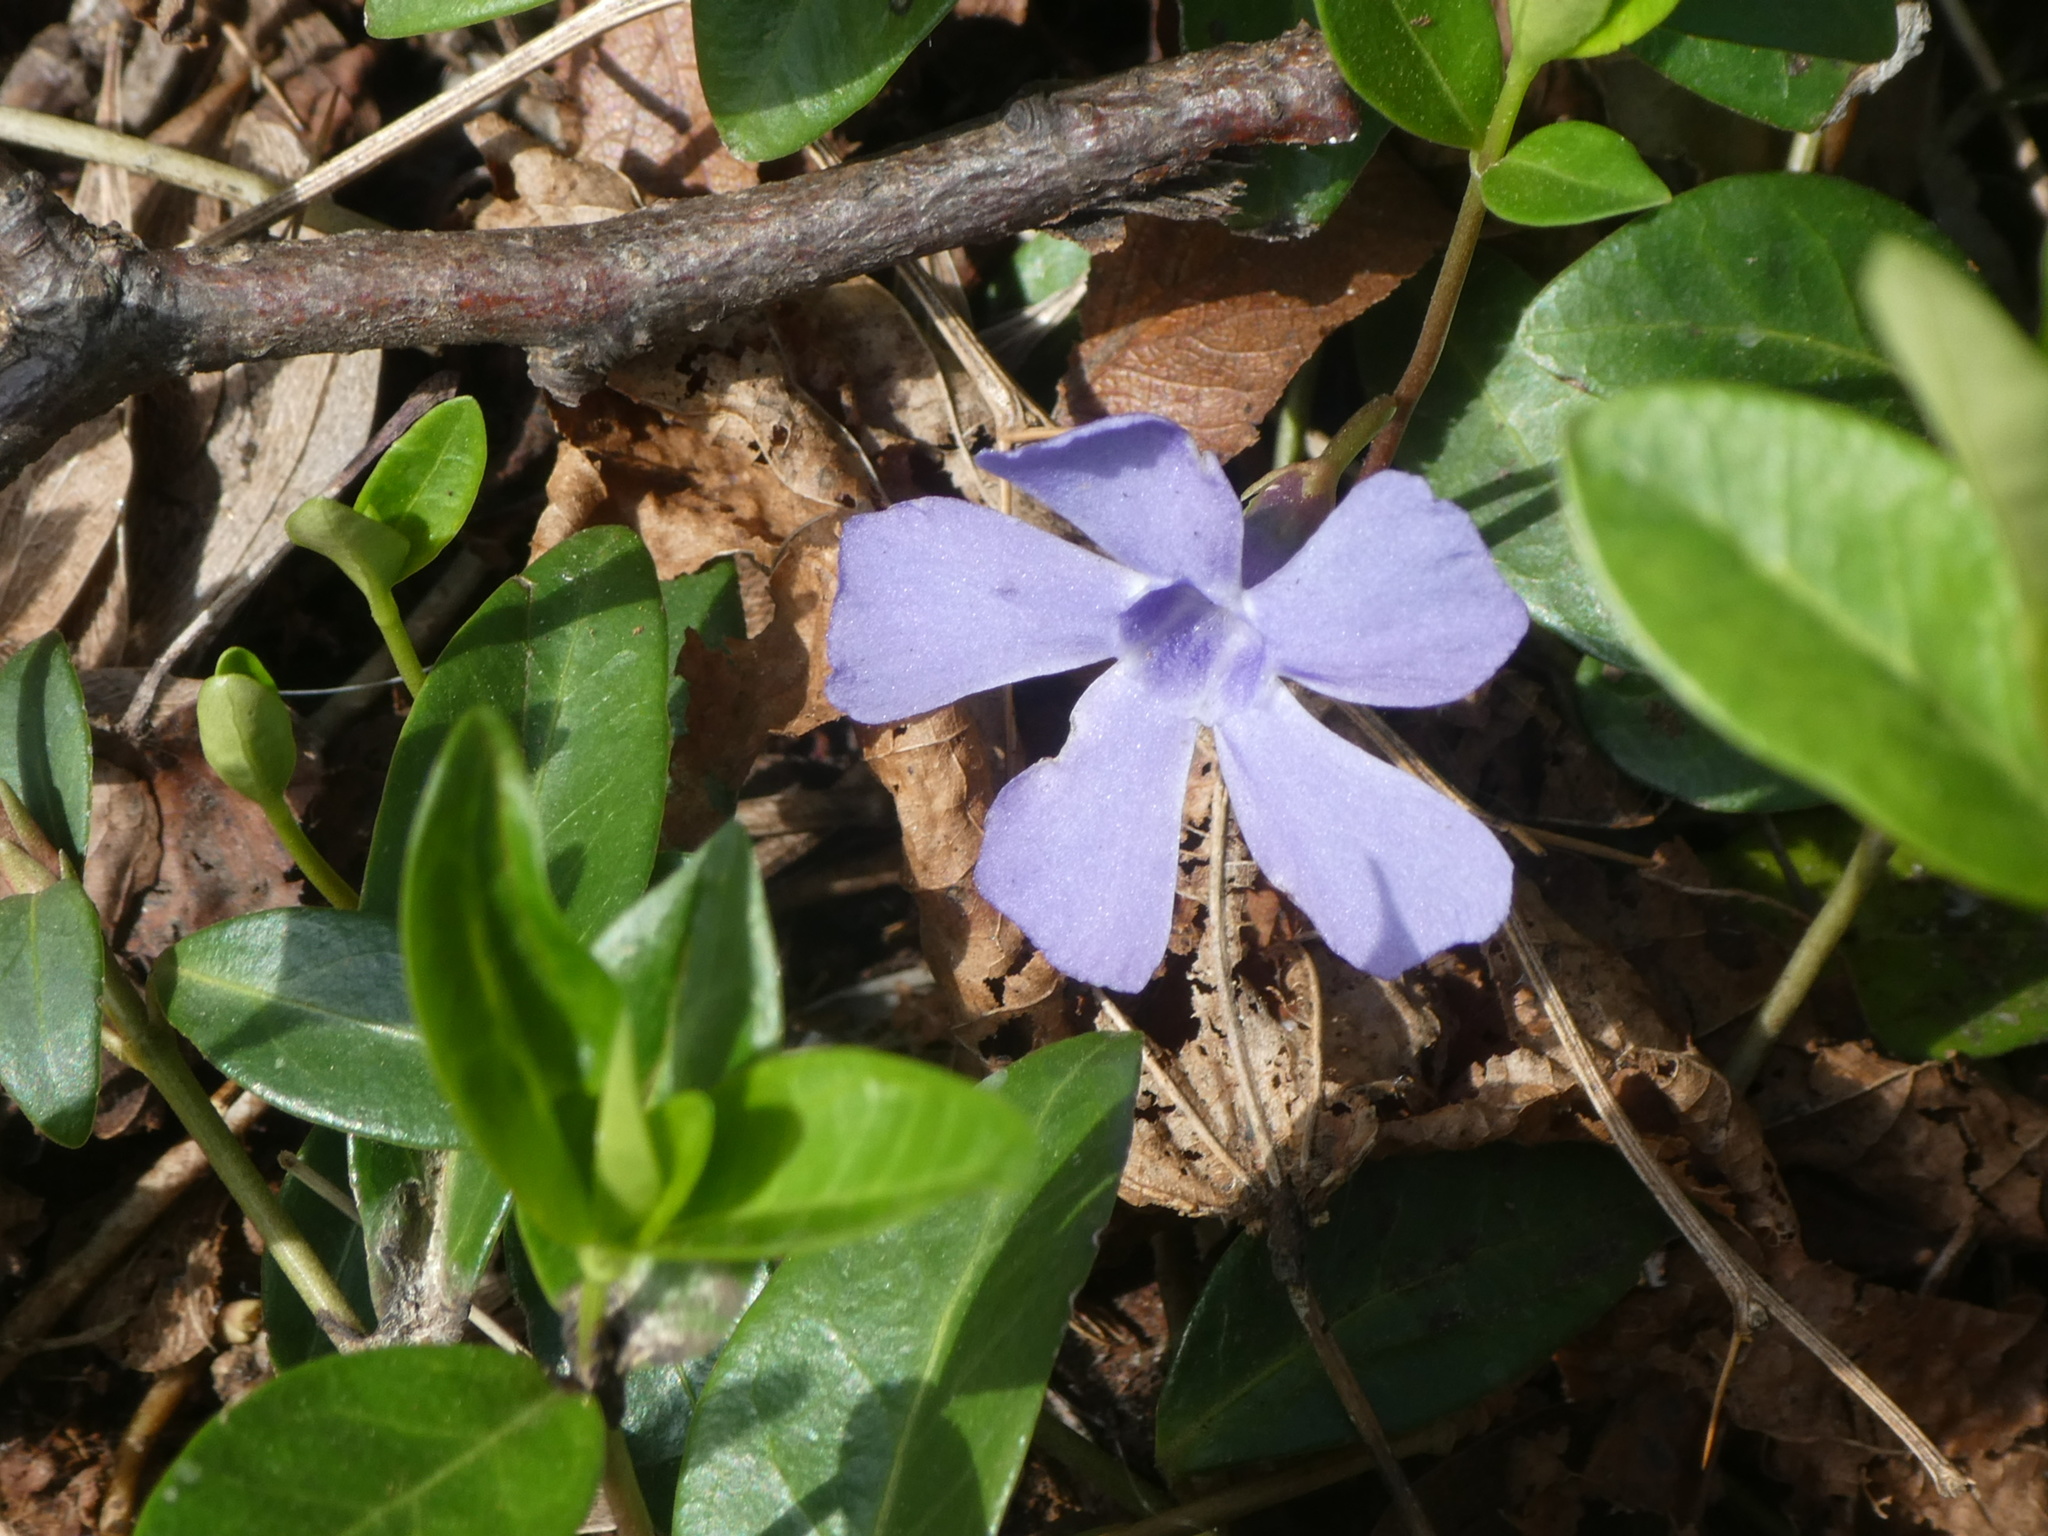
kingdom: Plantae
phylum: Tracheophyta
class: Magnoliopsida
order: Gentianales
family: Apocynaceae
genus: Vinca
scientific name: Vinca minor
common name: Lesser periwinkle
